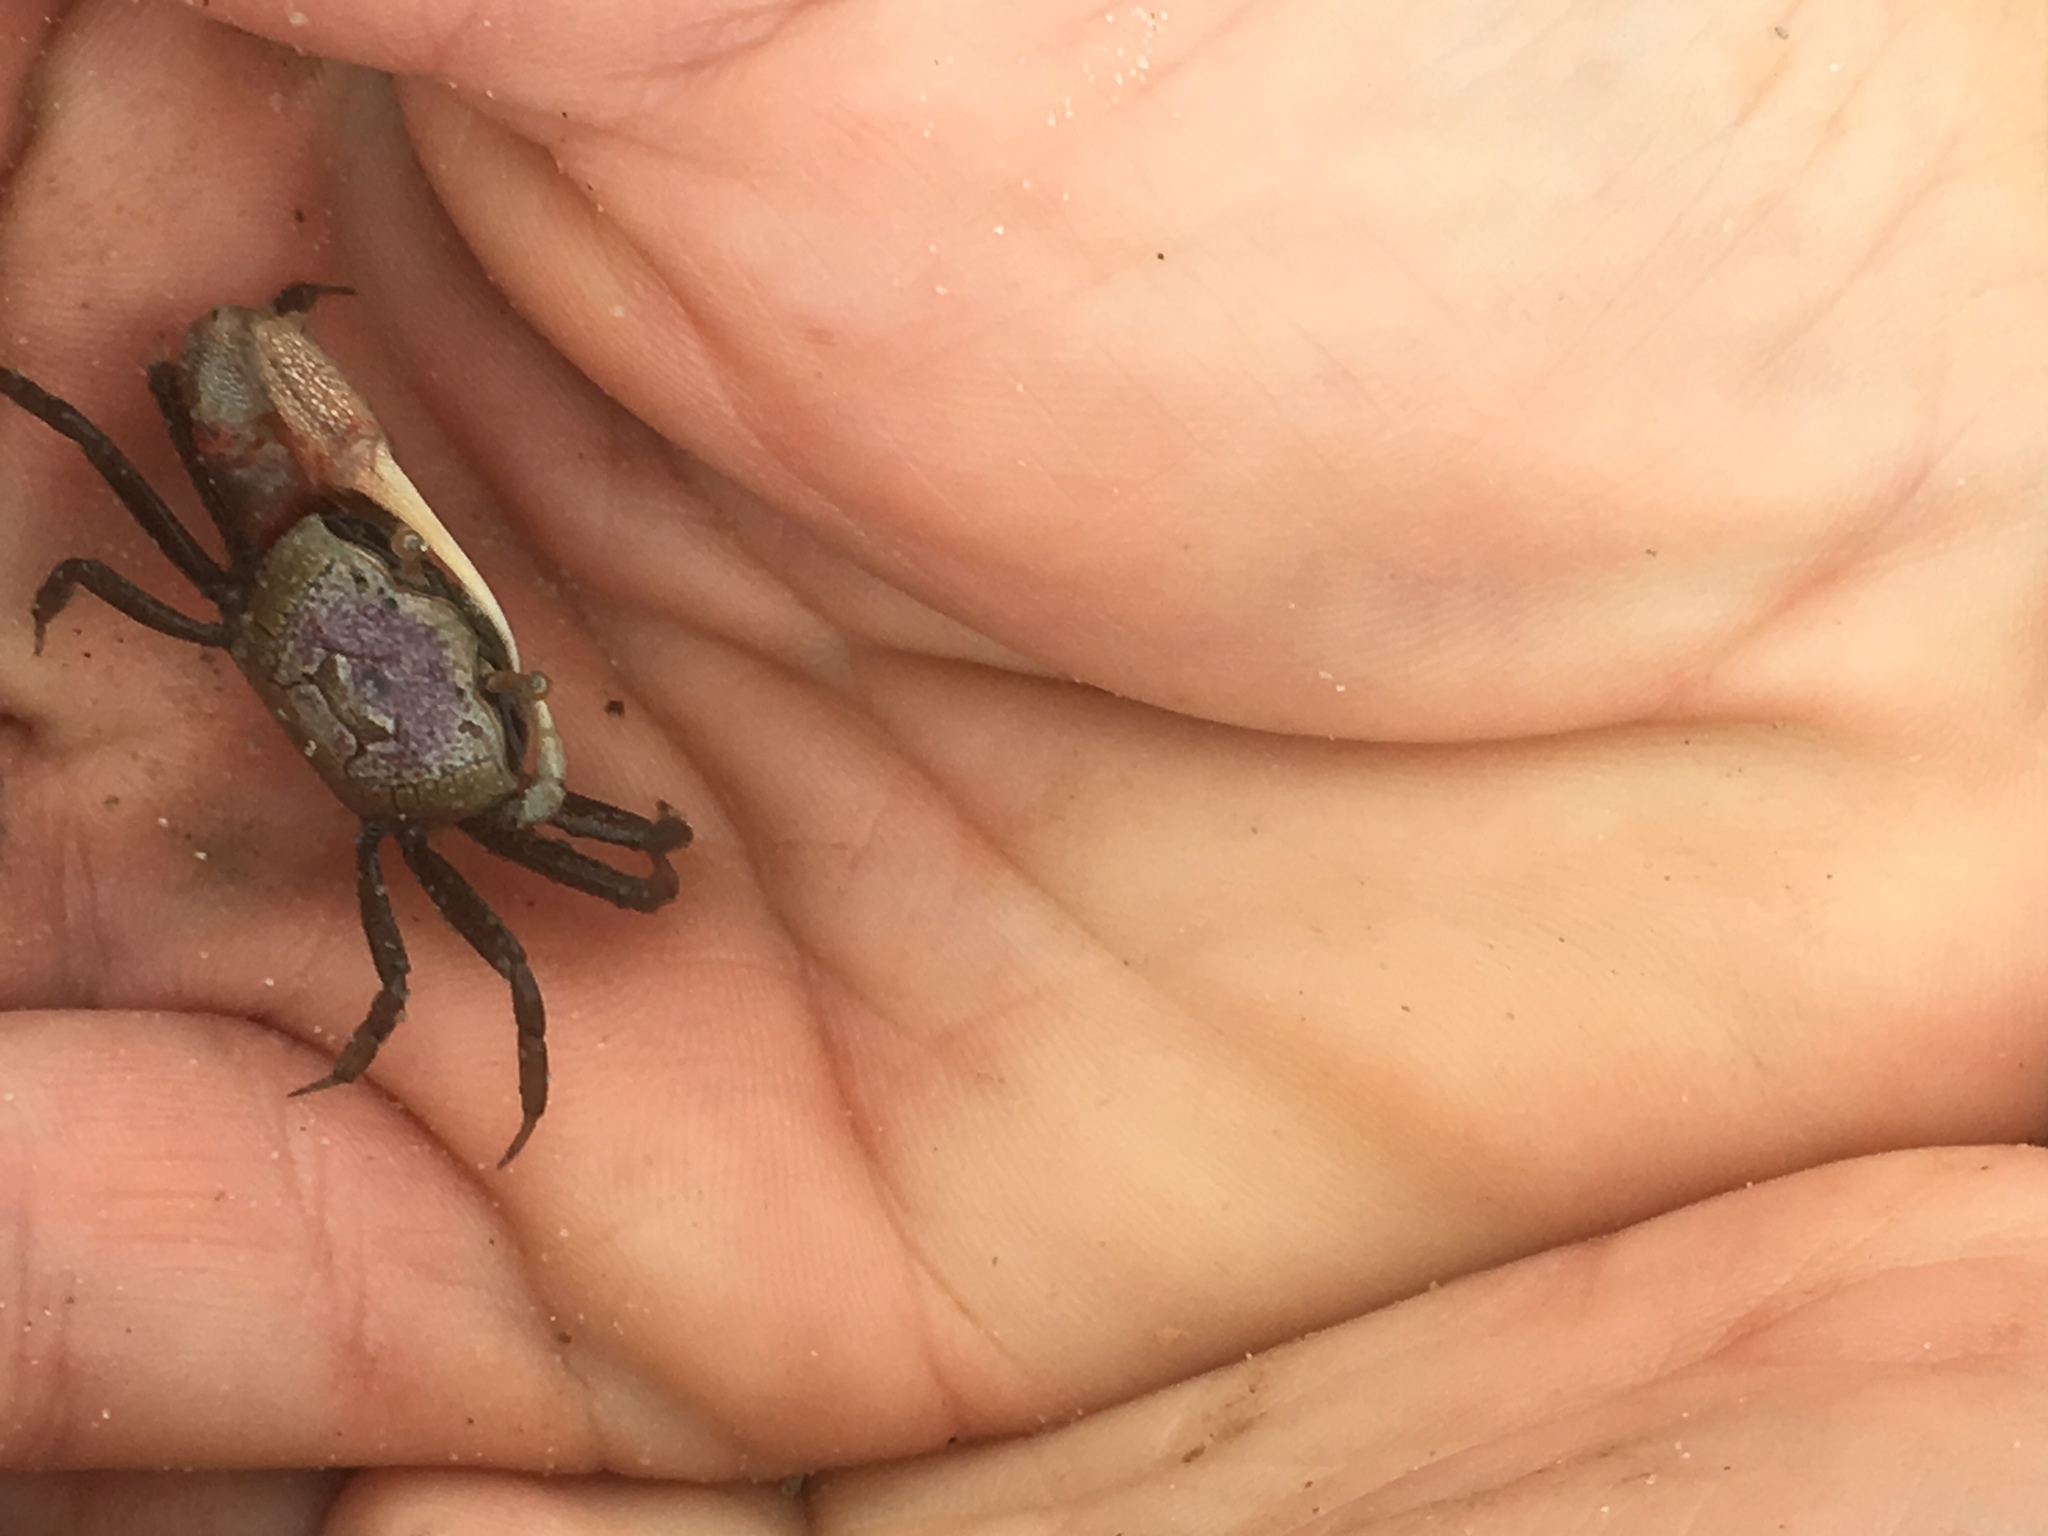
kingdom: Animalia
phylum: Arthropoda
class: Malacostraca
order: Decapoda
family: Ocypodidae
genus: Leptuca
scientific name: Leptuca pugilator
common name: Atlantic sand fiddler crab
